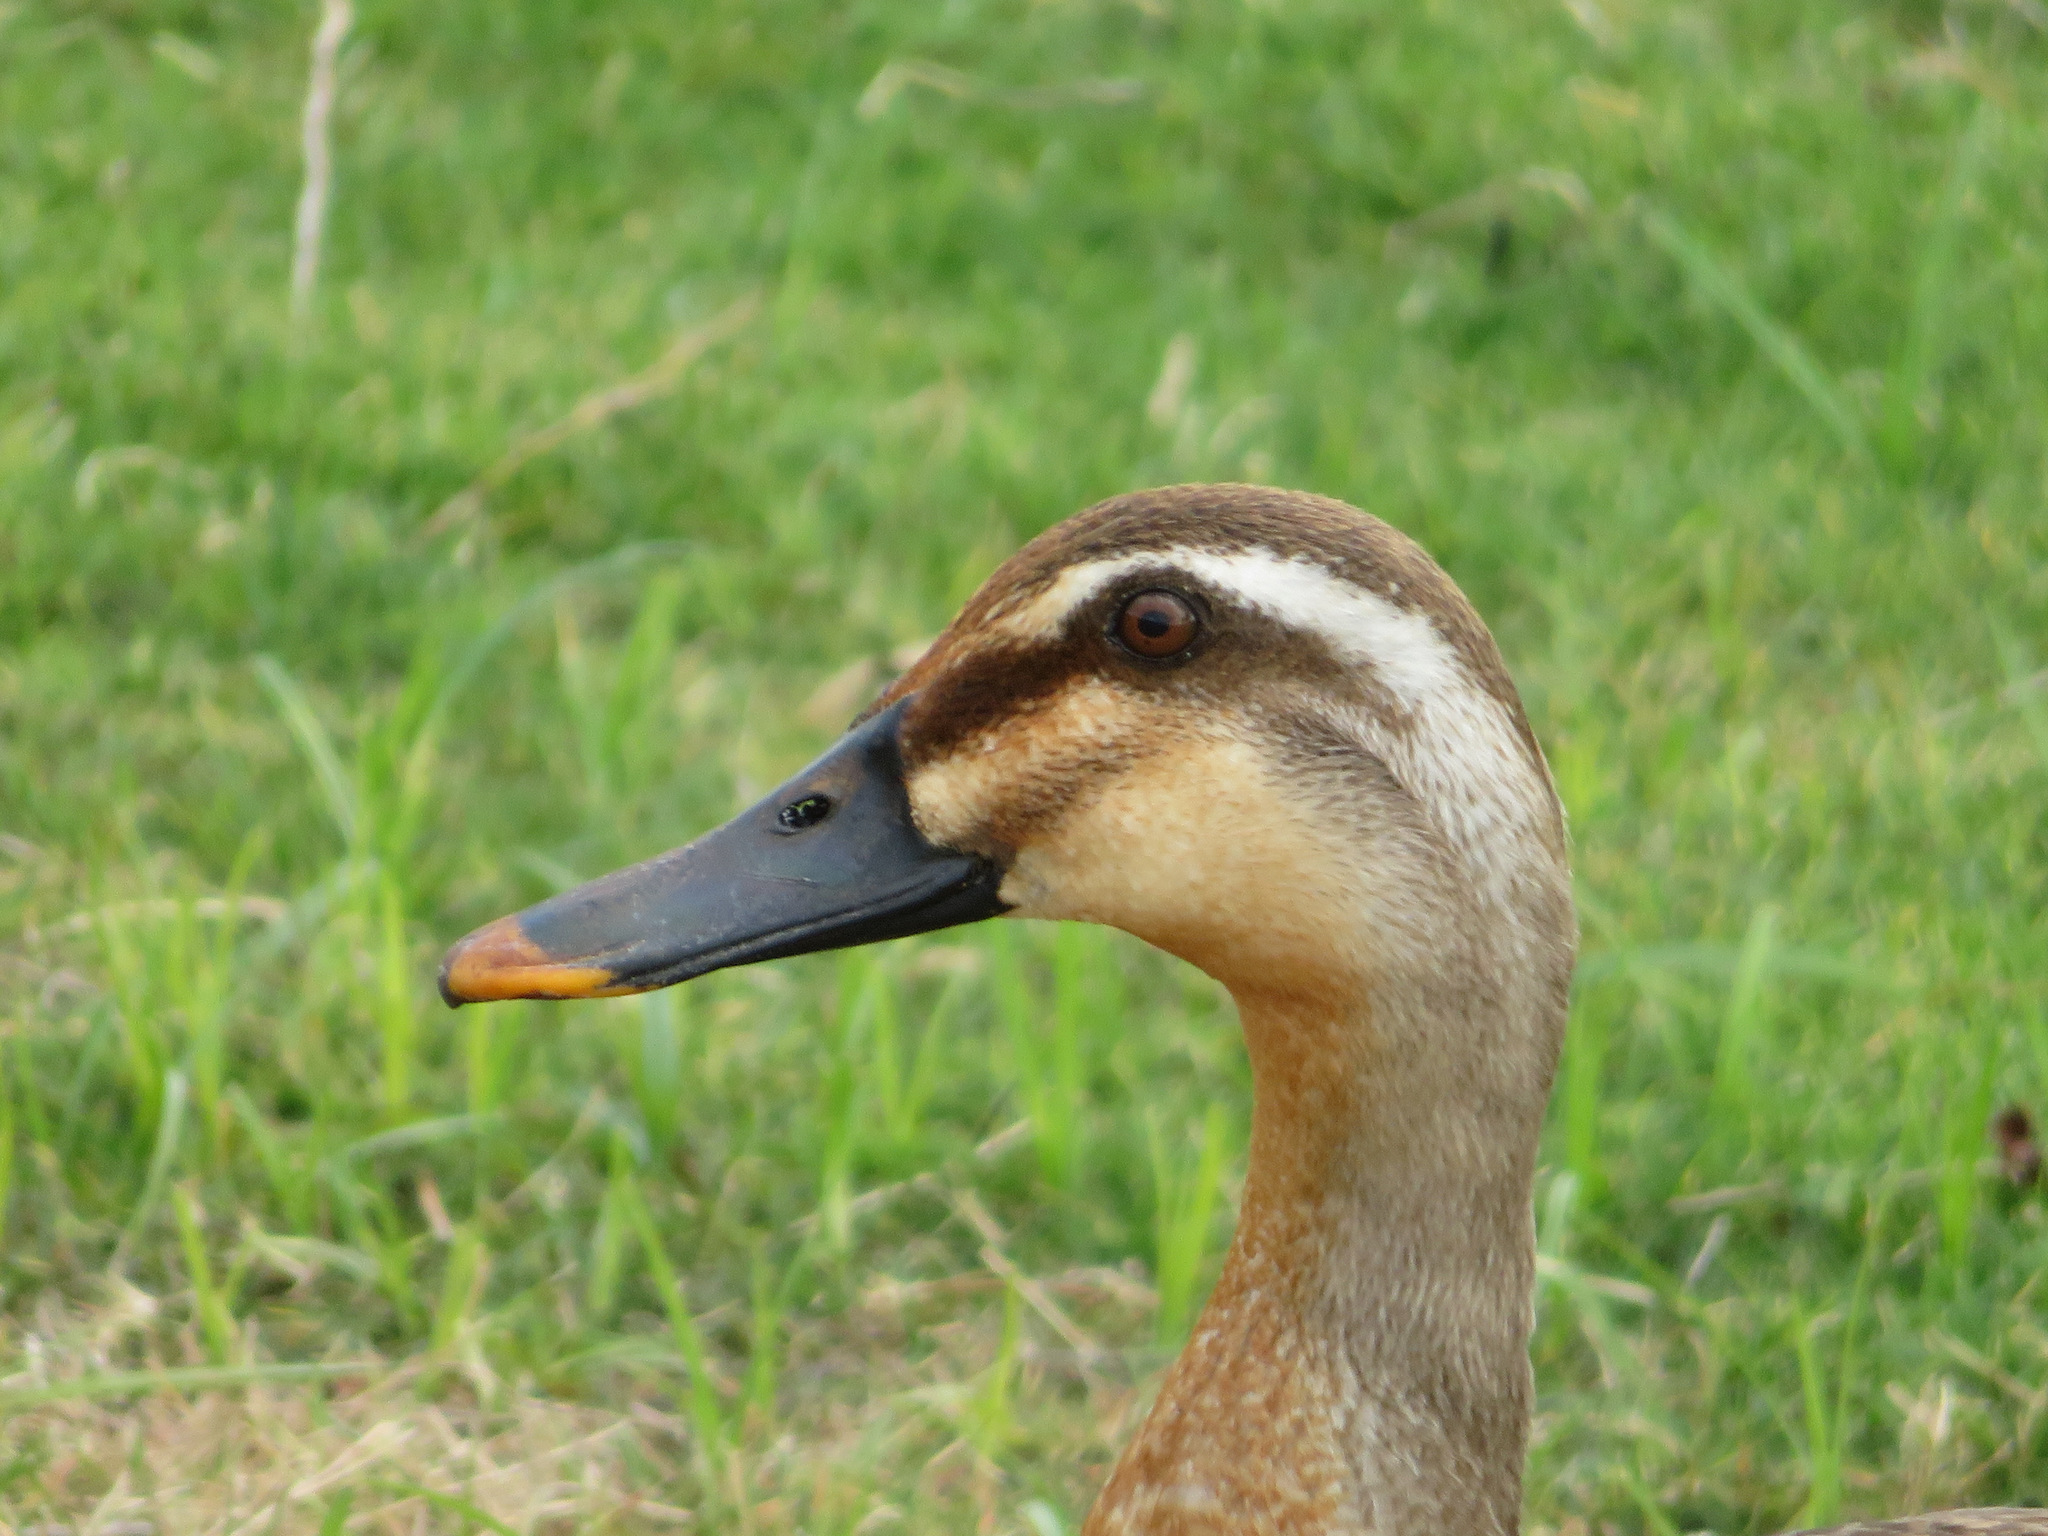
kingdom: Animalia
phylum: Chordata
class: Aves
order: Anseriformes
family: Anatidae
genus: Anas
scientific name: Anas zonorhyncha
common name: Eastern spot-billed duck
